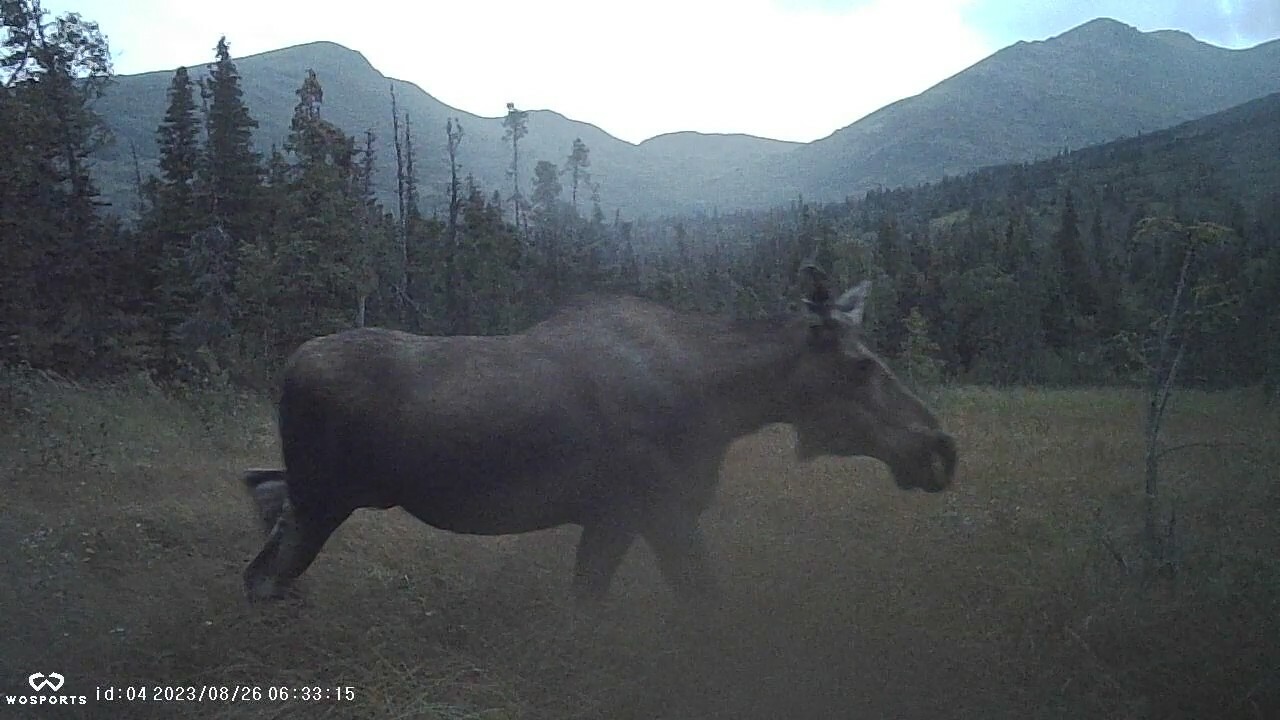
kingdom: Animalia
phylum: Chordata
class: Mammalia
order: Artiodactyla
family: Cervidae
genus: Alces
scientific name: Alces alces
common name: Moose
